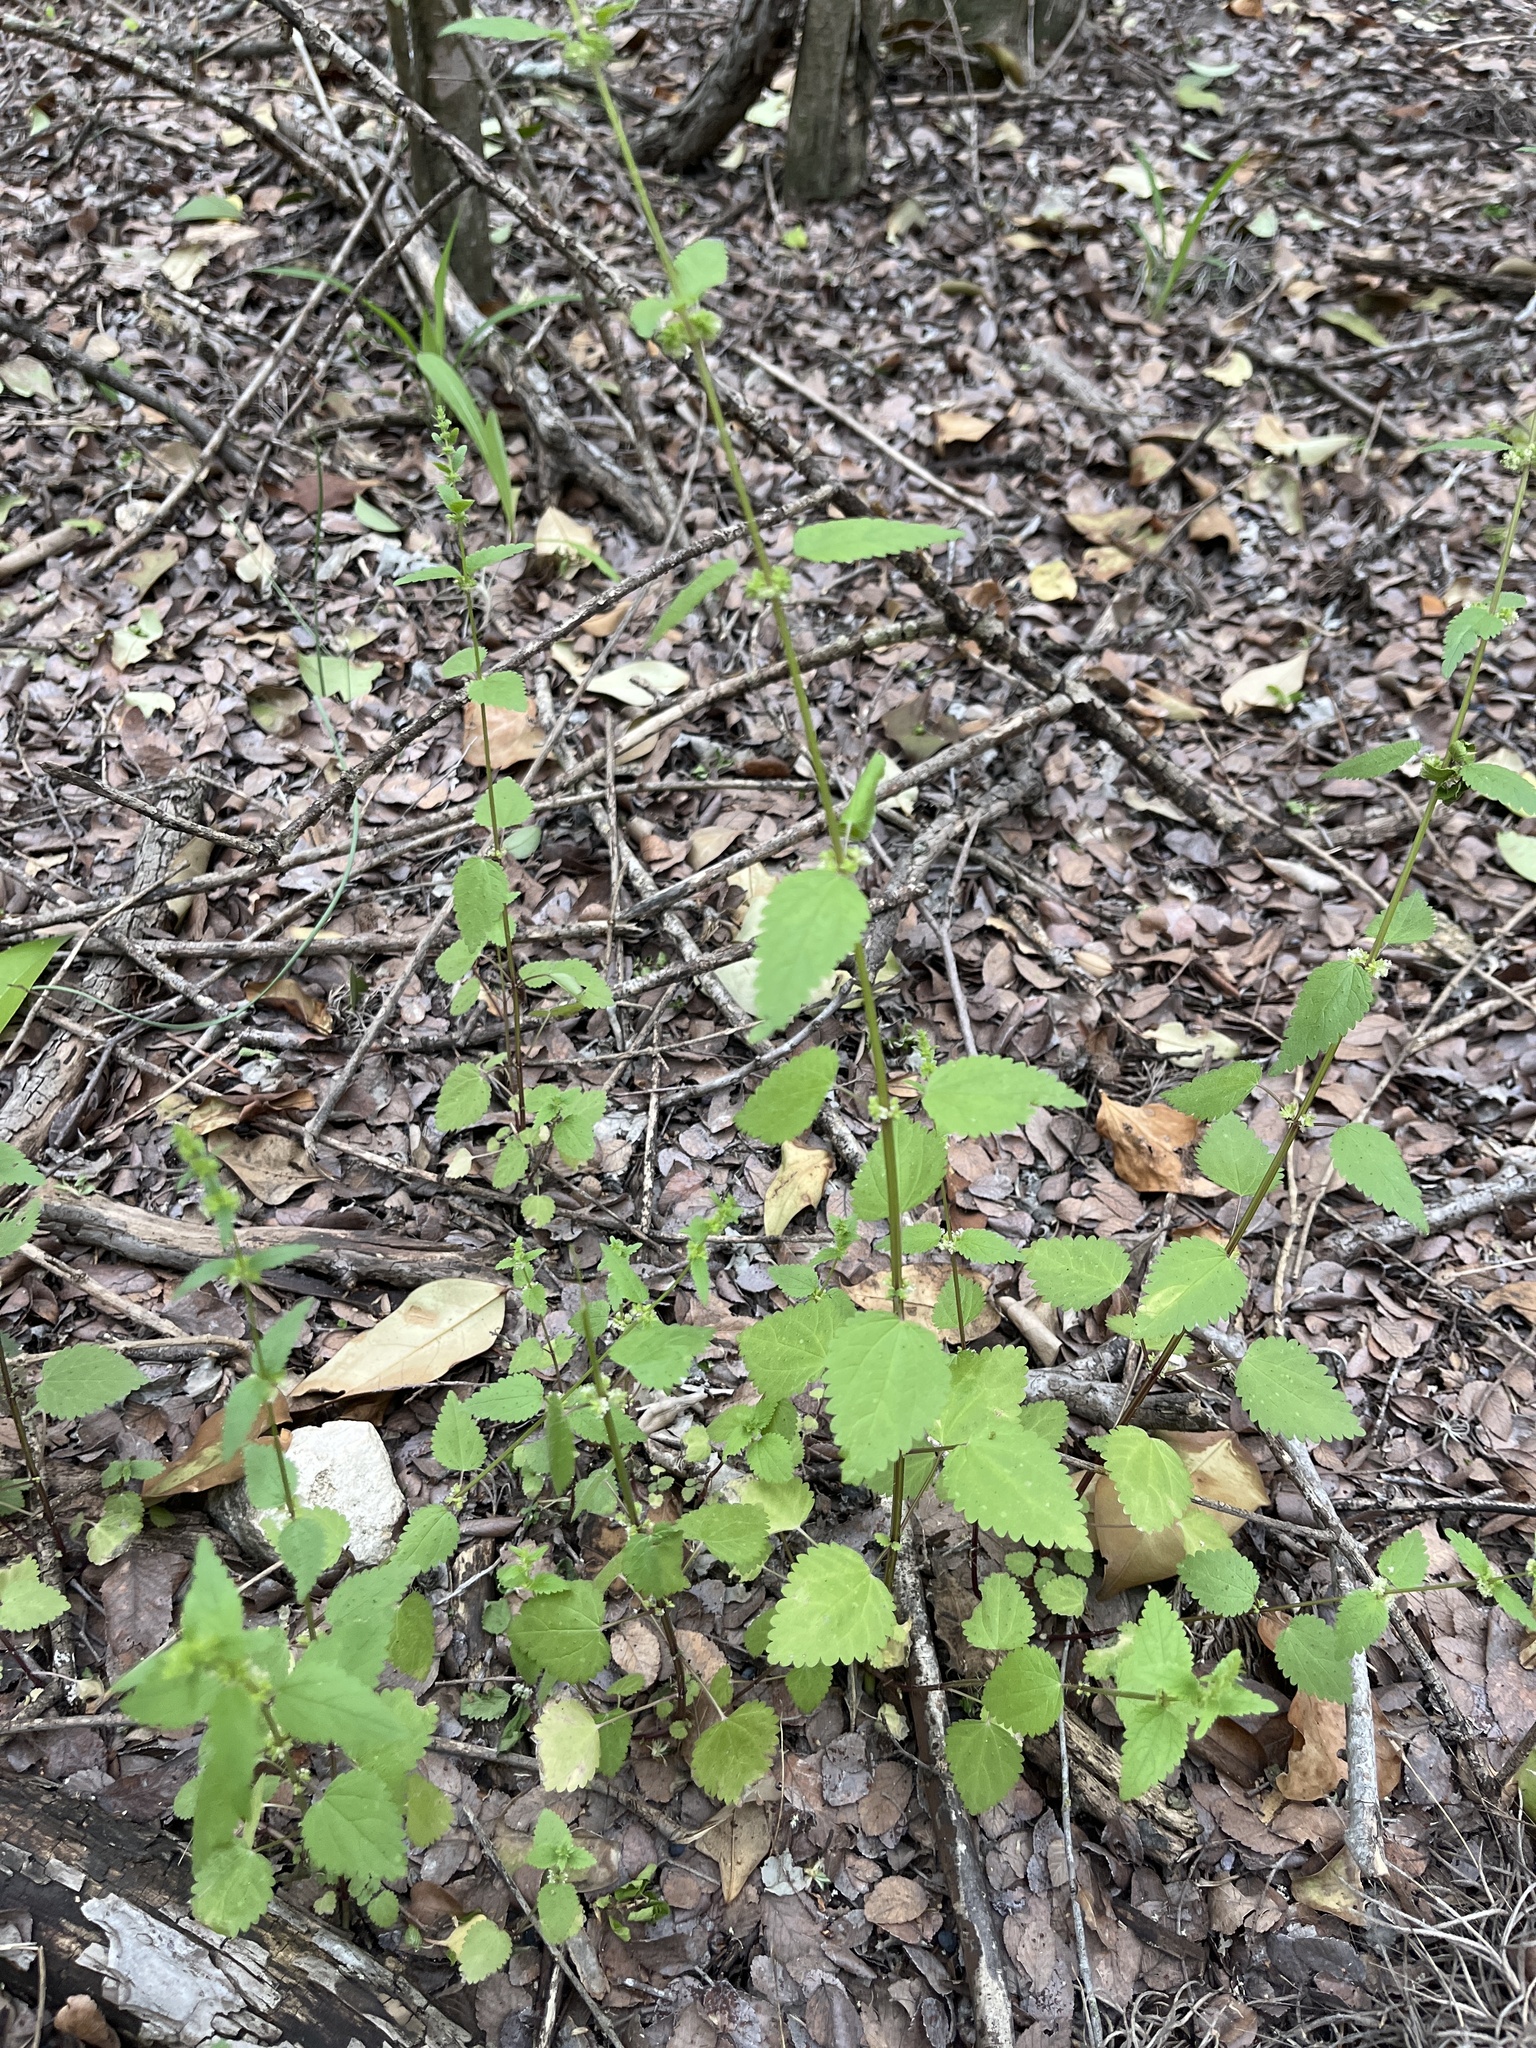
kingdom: Plantae
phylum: Tracheophyta
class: Magnoliopsida
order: Rosales
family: Urticaceae
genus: Urtica
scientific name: Urtica chamaedryoides
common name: Heart-leaf nettle
